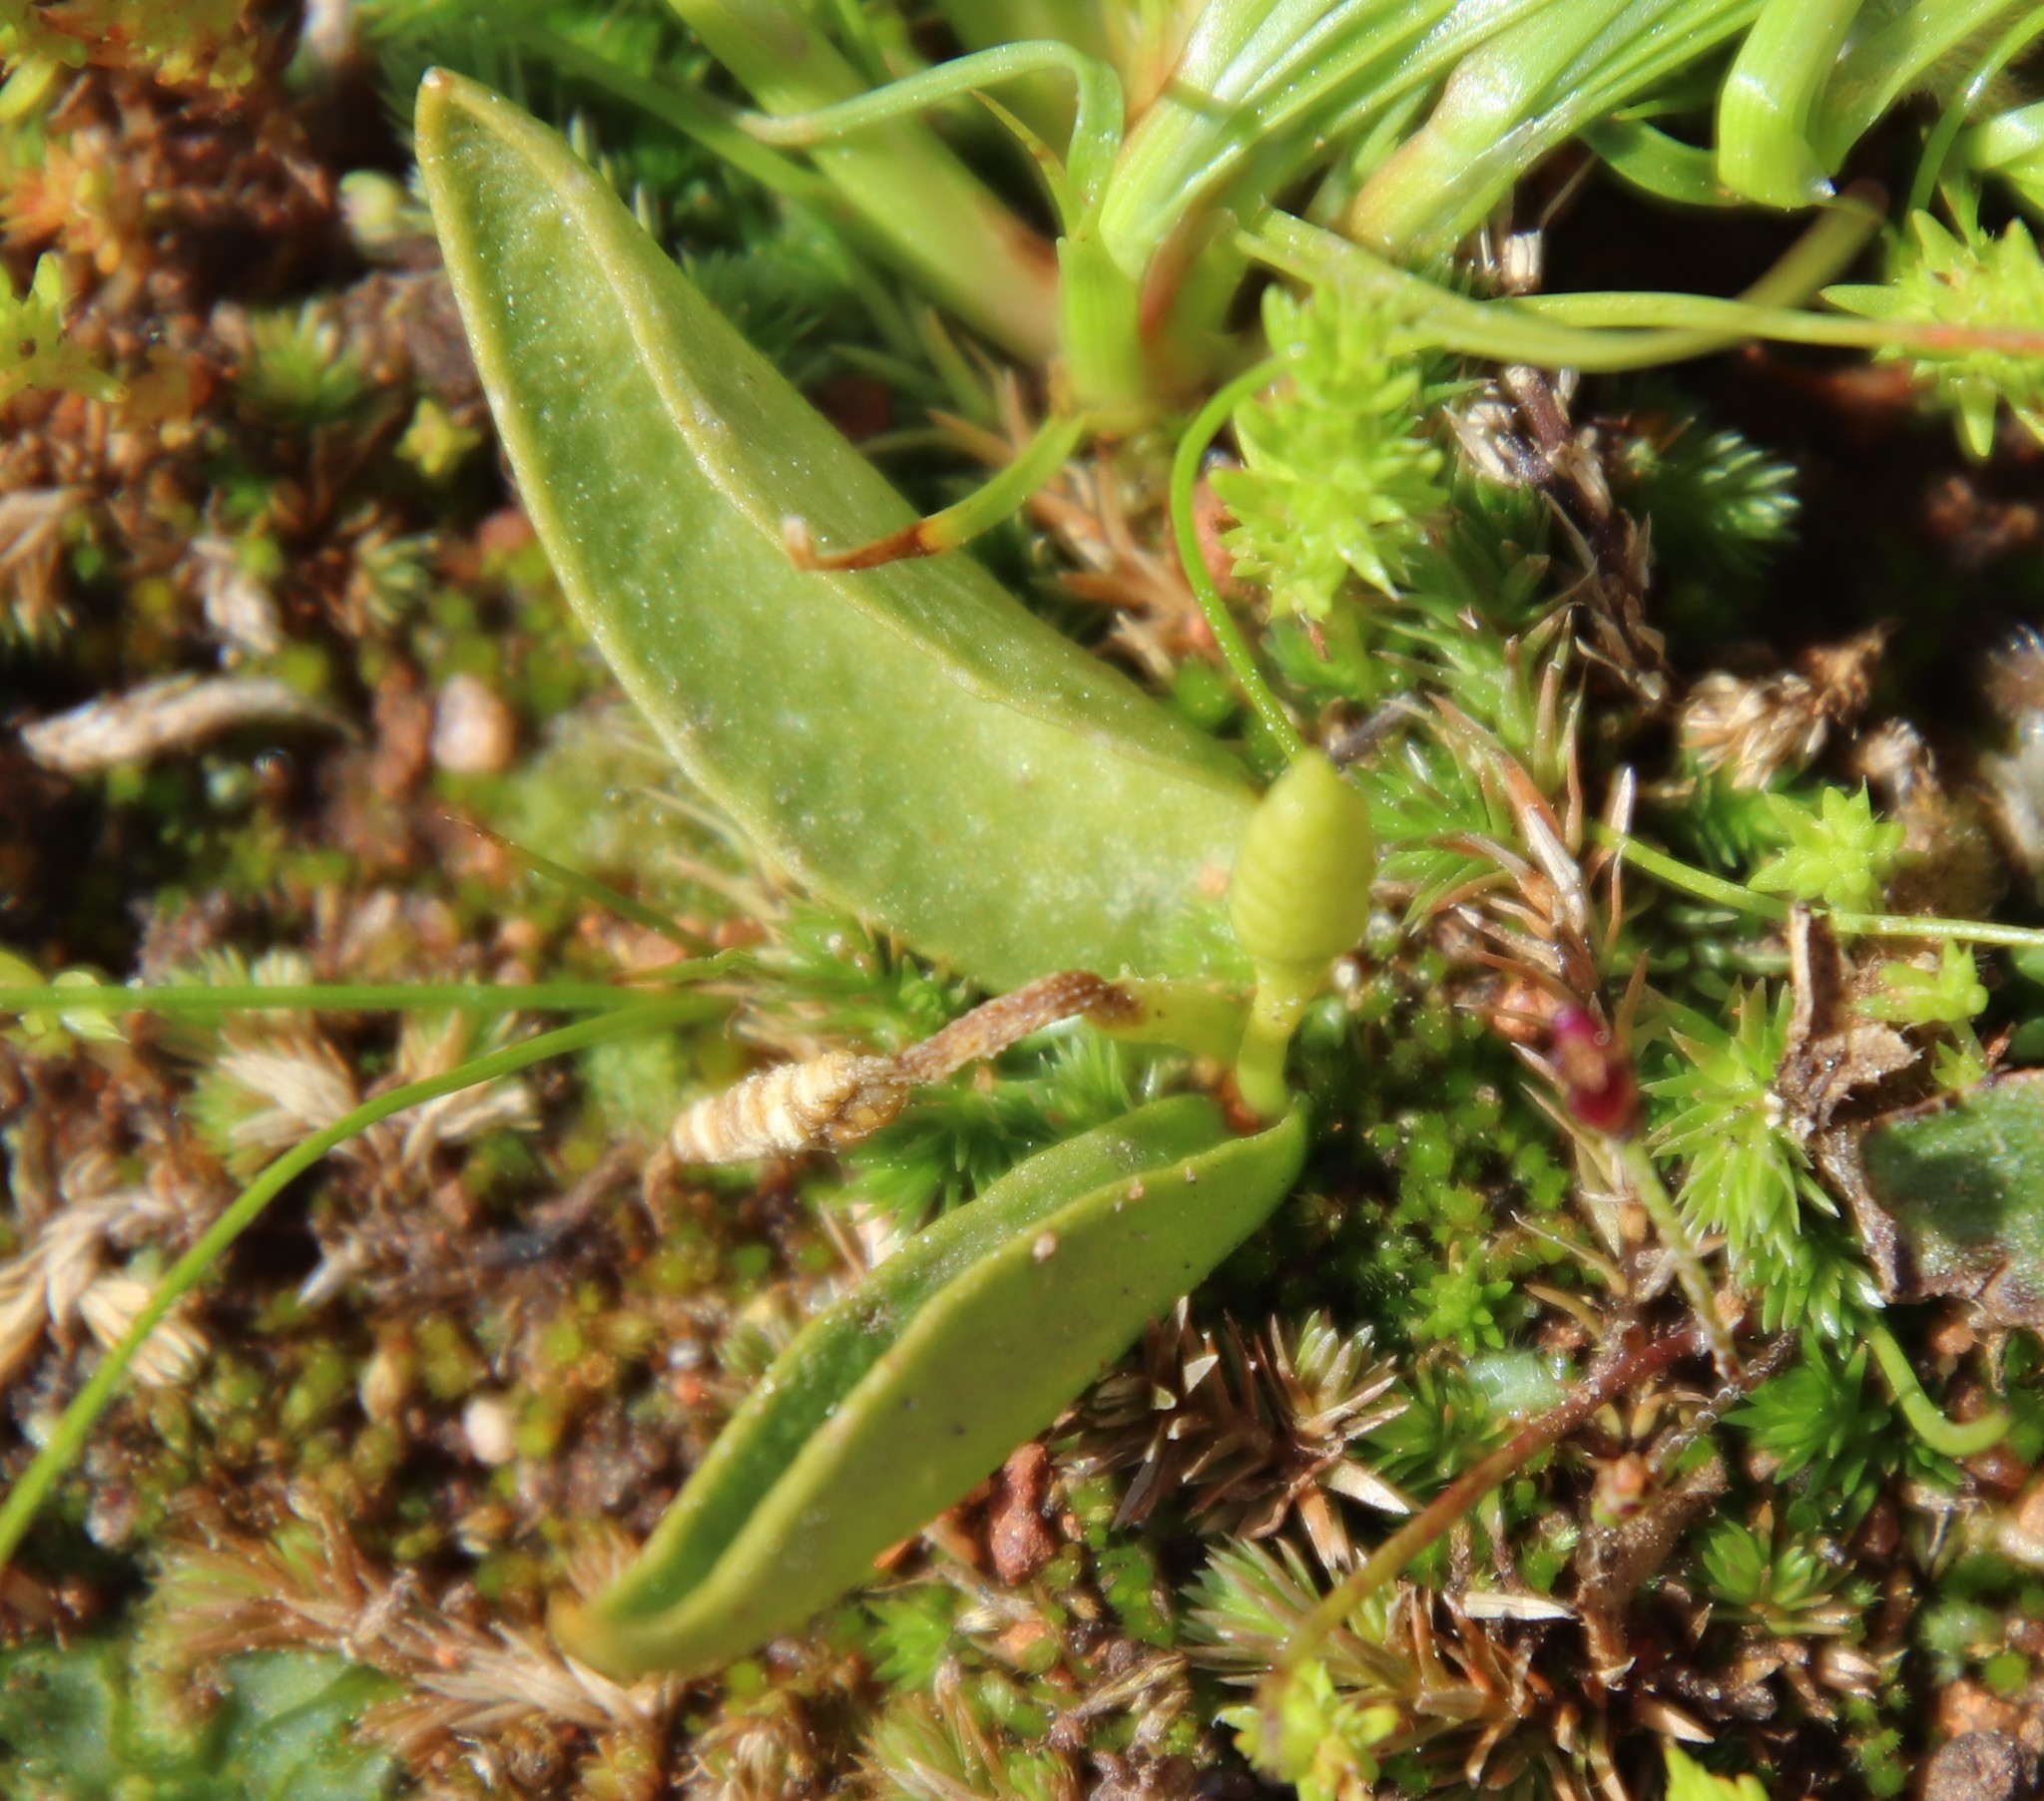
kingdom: Plantae
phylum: Tracheophyta
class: Polypodiopsida
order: Ophioglossales
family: Ophioglossaceae
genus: Ophioglossum
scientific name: Ophioglossum californicum
